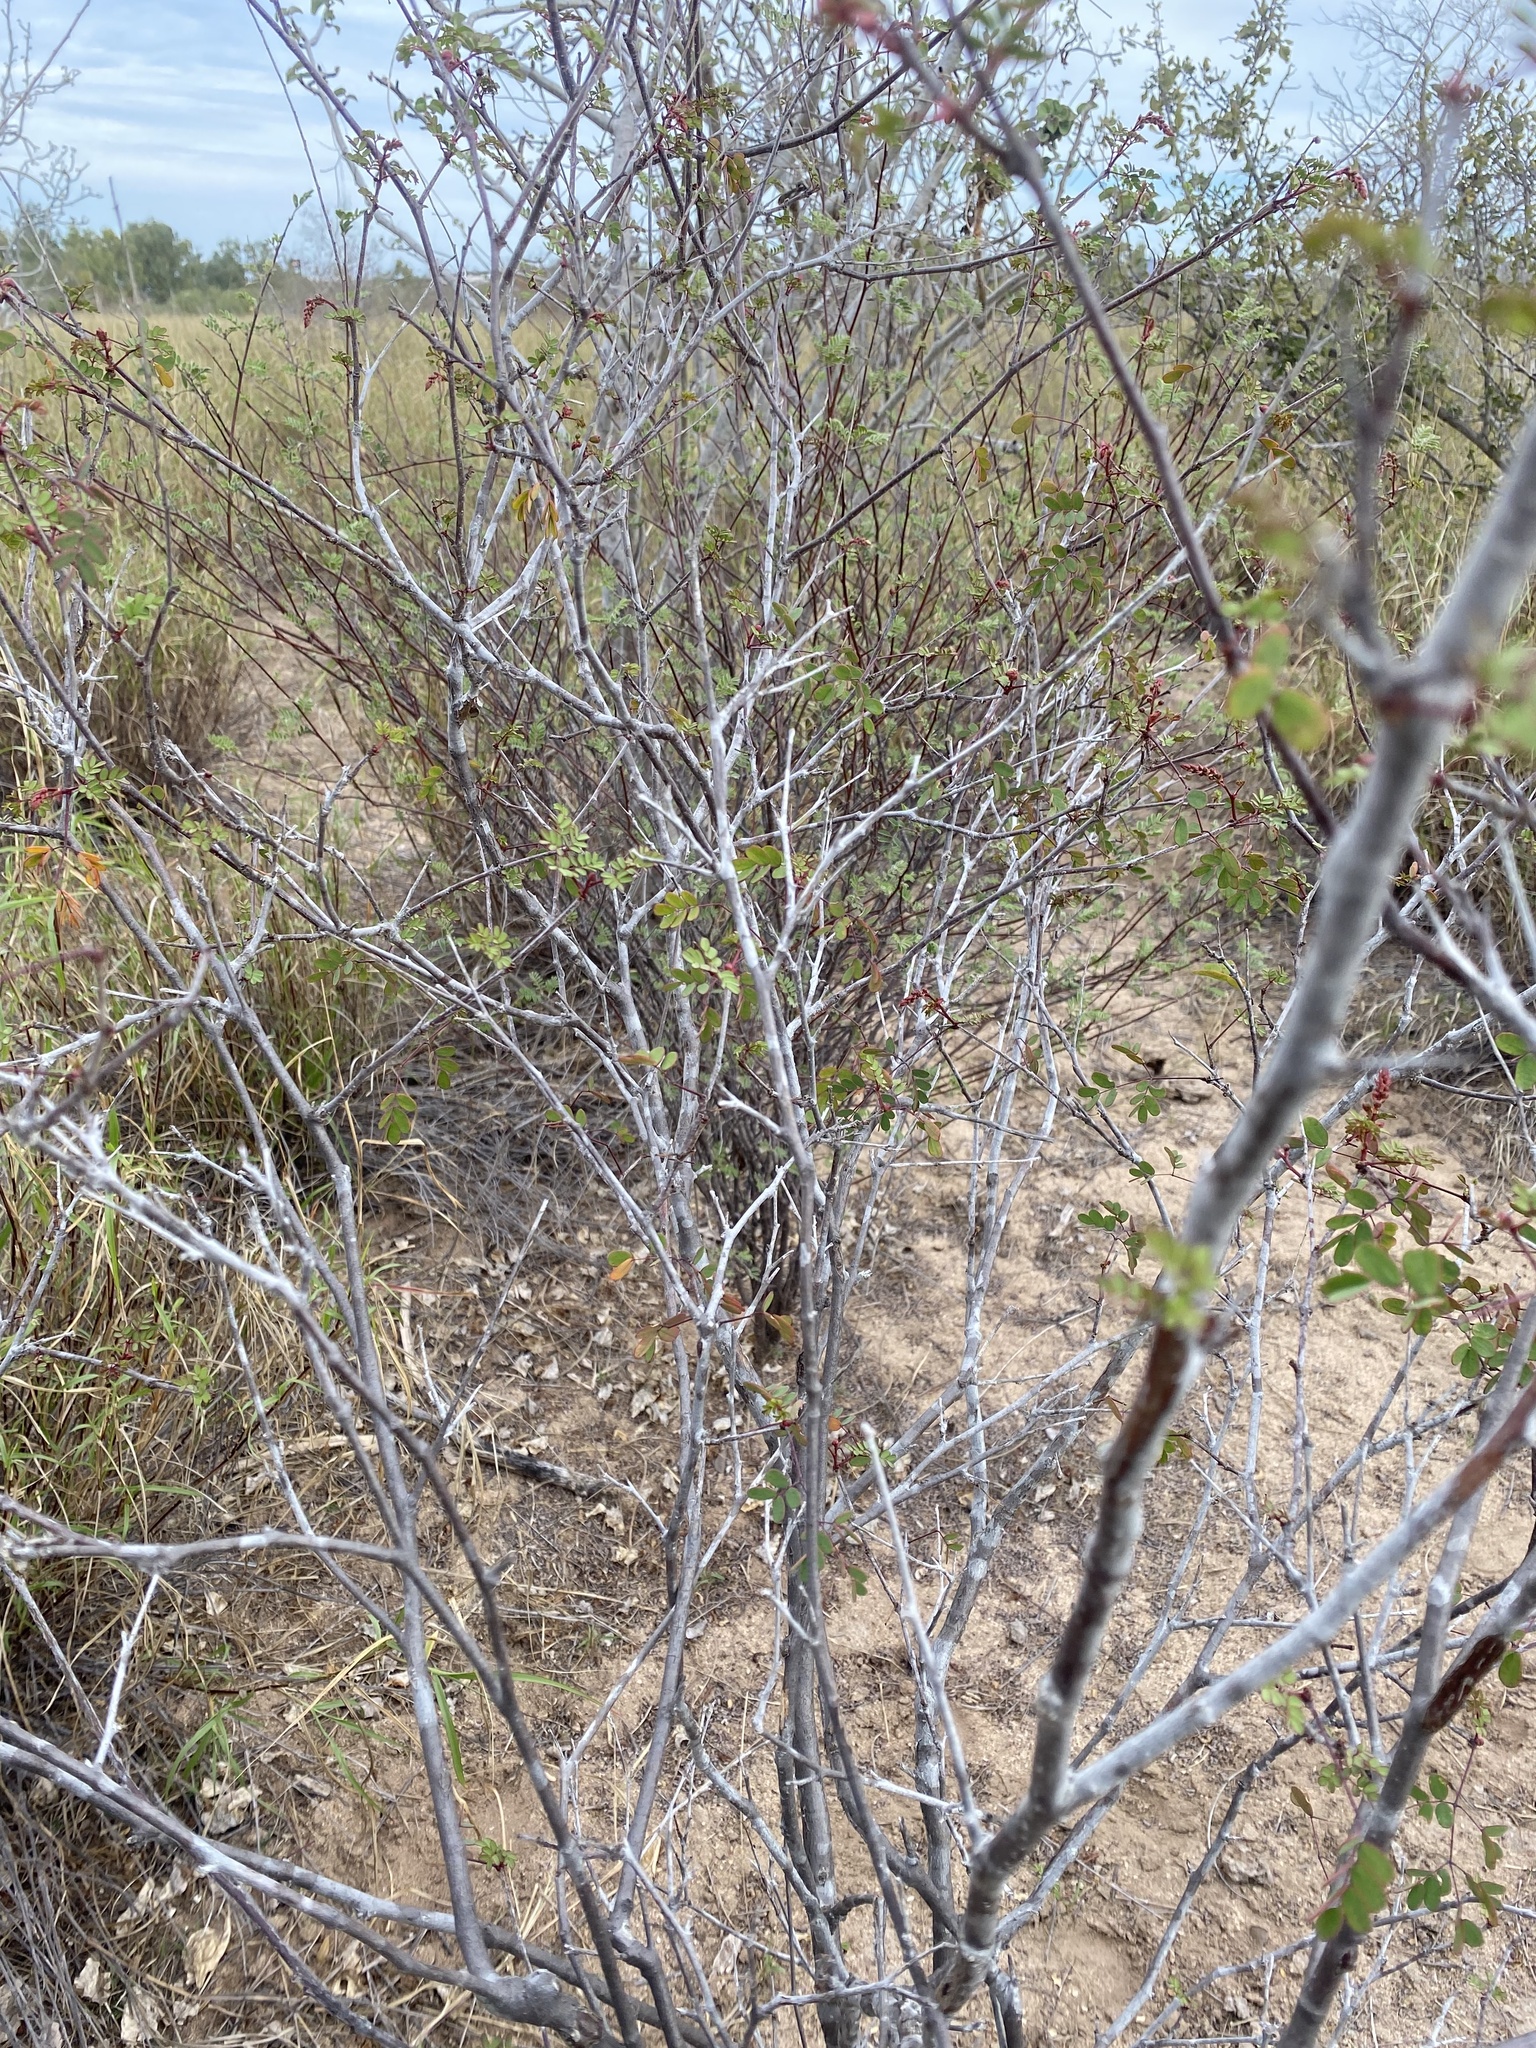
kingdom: Plantae
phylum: Tracheophyta
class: Magnoliopsida
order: Fabales
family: Fabaceae
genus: Erythrostemon
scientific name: Erythrostemon pannosus
